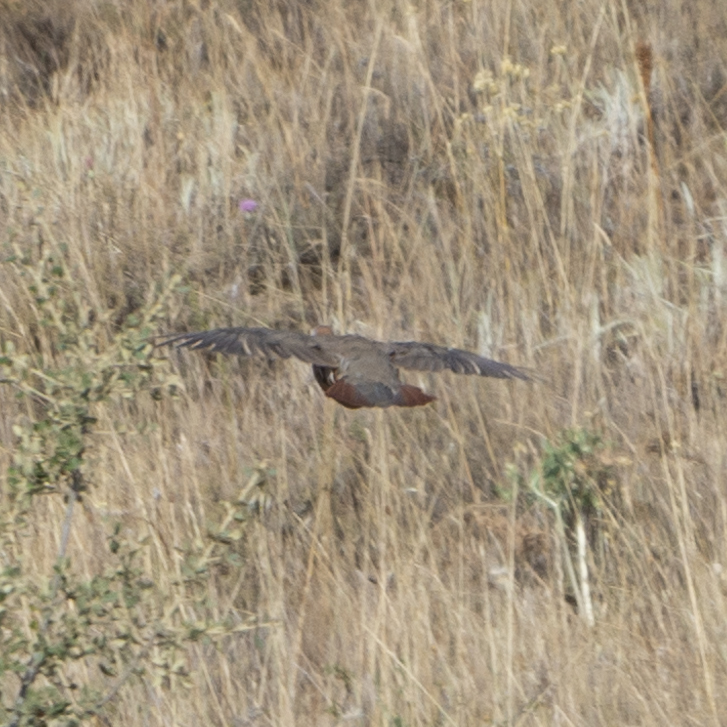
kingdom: Animalia
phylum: Chordata
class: Aves
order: Galliformes
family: Phasianidae
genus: Alectoris
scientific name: Alectoris rufa
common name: Red-legged partridge
